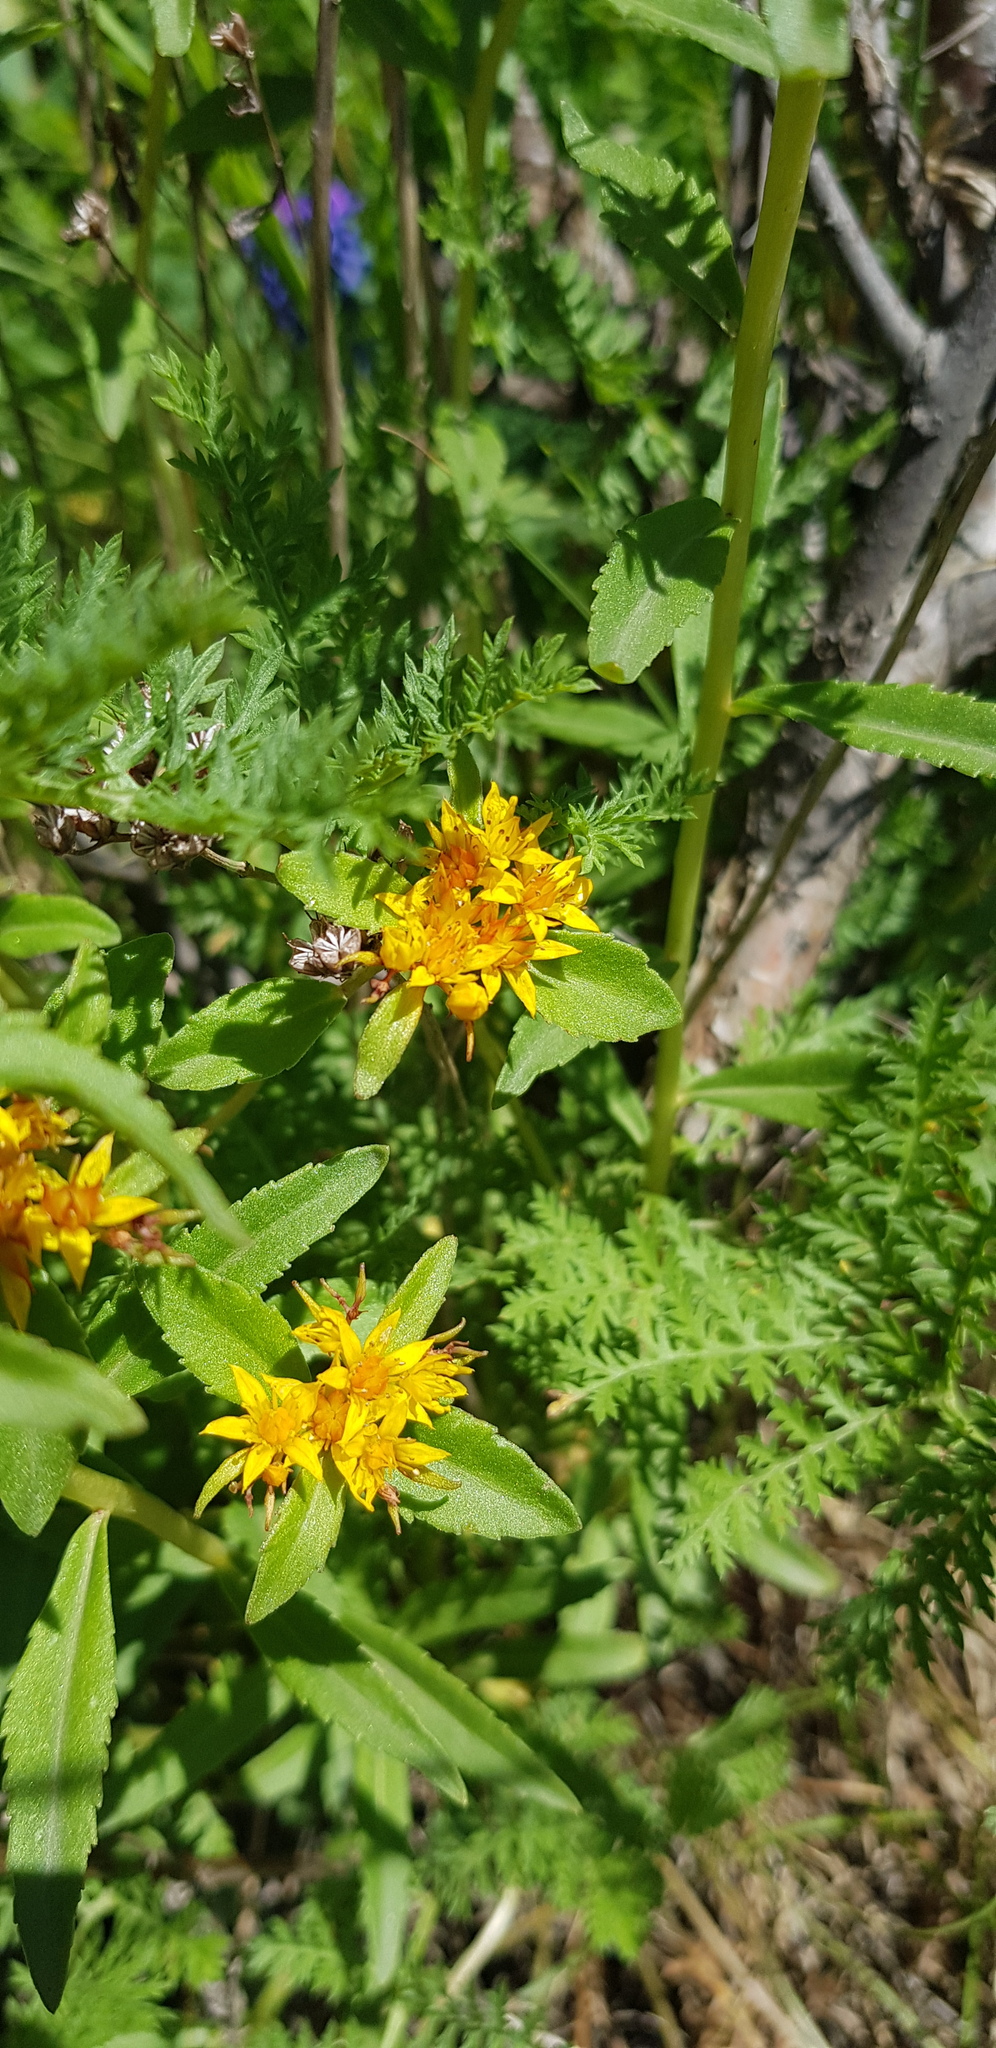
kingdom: Plantae
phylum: Tracheophyta
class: Magnoliopsida
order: Saxifragales
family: Crassulaceae
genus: Phedimus
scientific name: Phedimus aizoon
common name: Orpin aizoon
